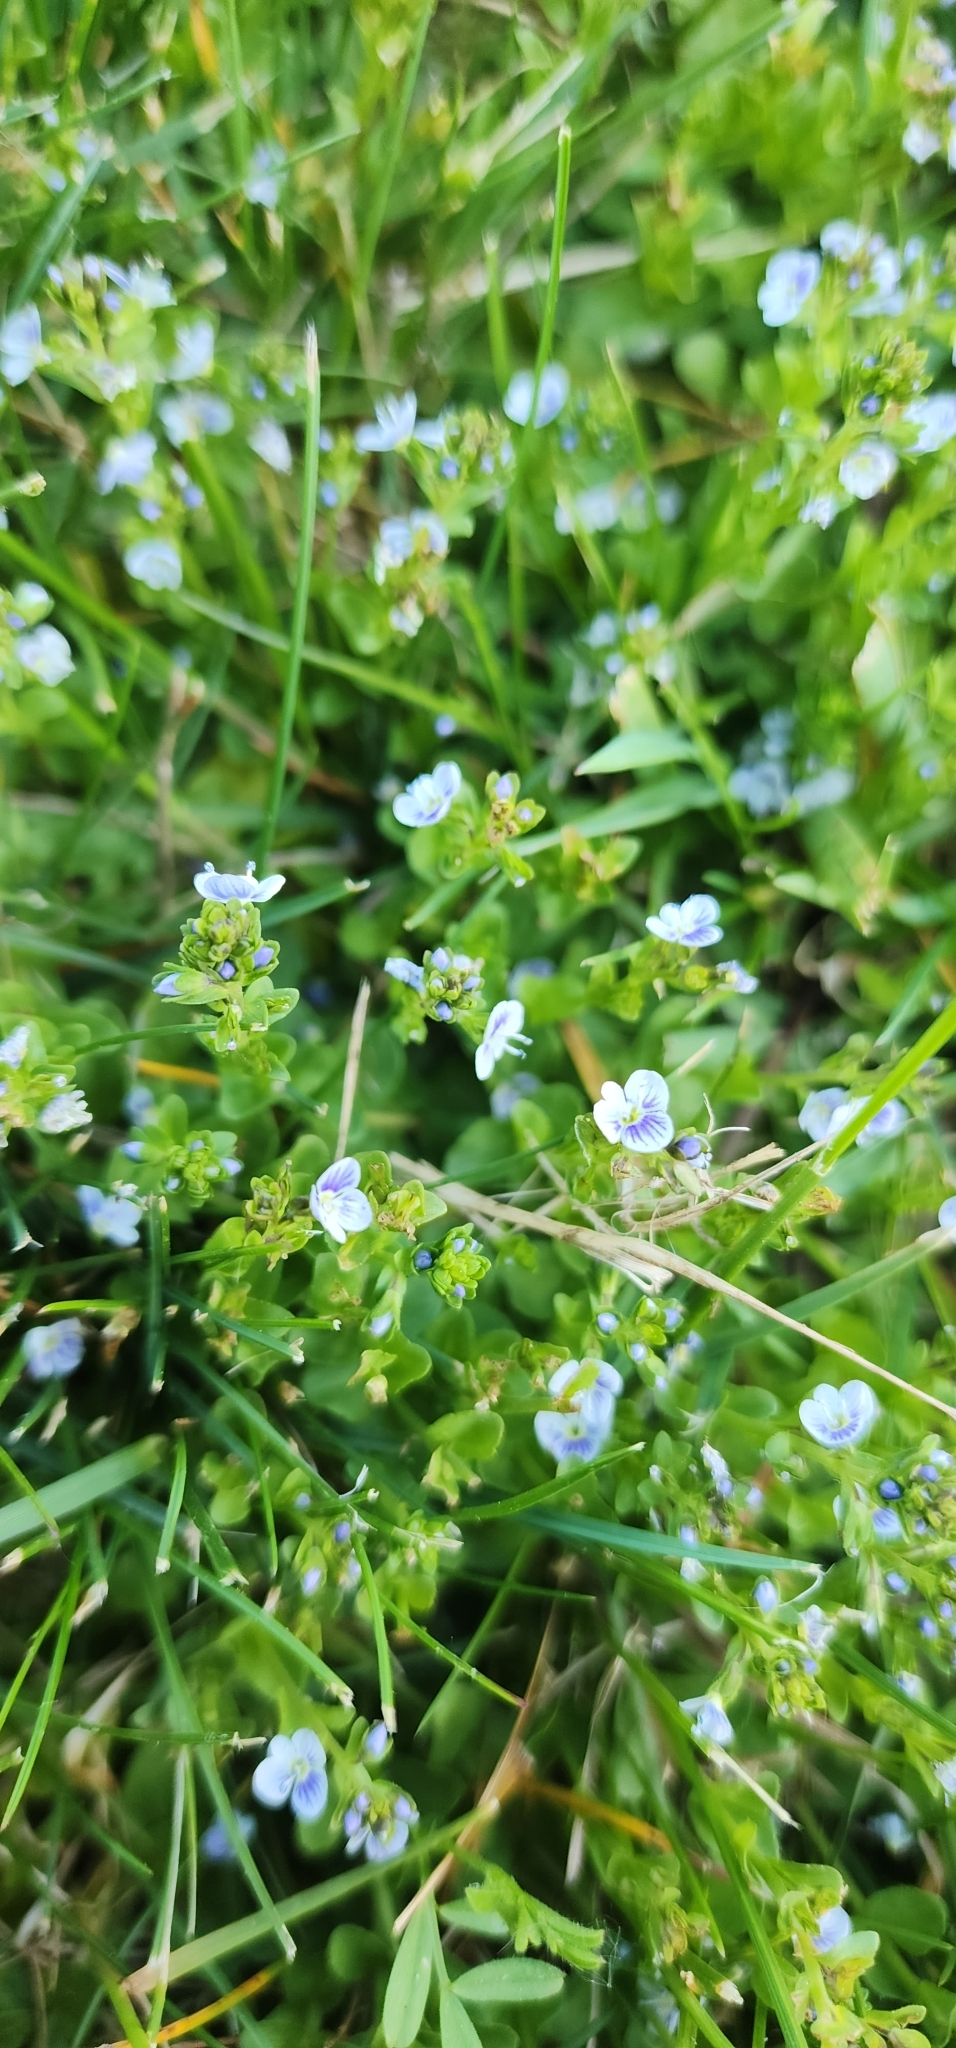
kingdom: Plantae
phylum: Tracheophyta
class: Magnoliopsida
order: Lamiales
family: Plantaginaceae
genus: Veronica
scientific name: Veronica serpyllifolia
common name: Thyme-leaved speedwell
